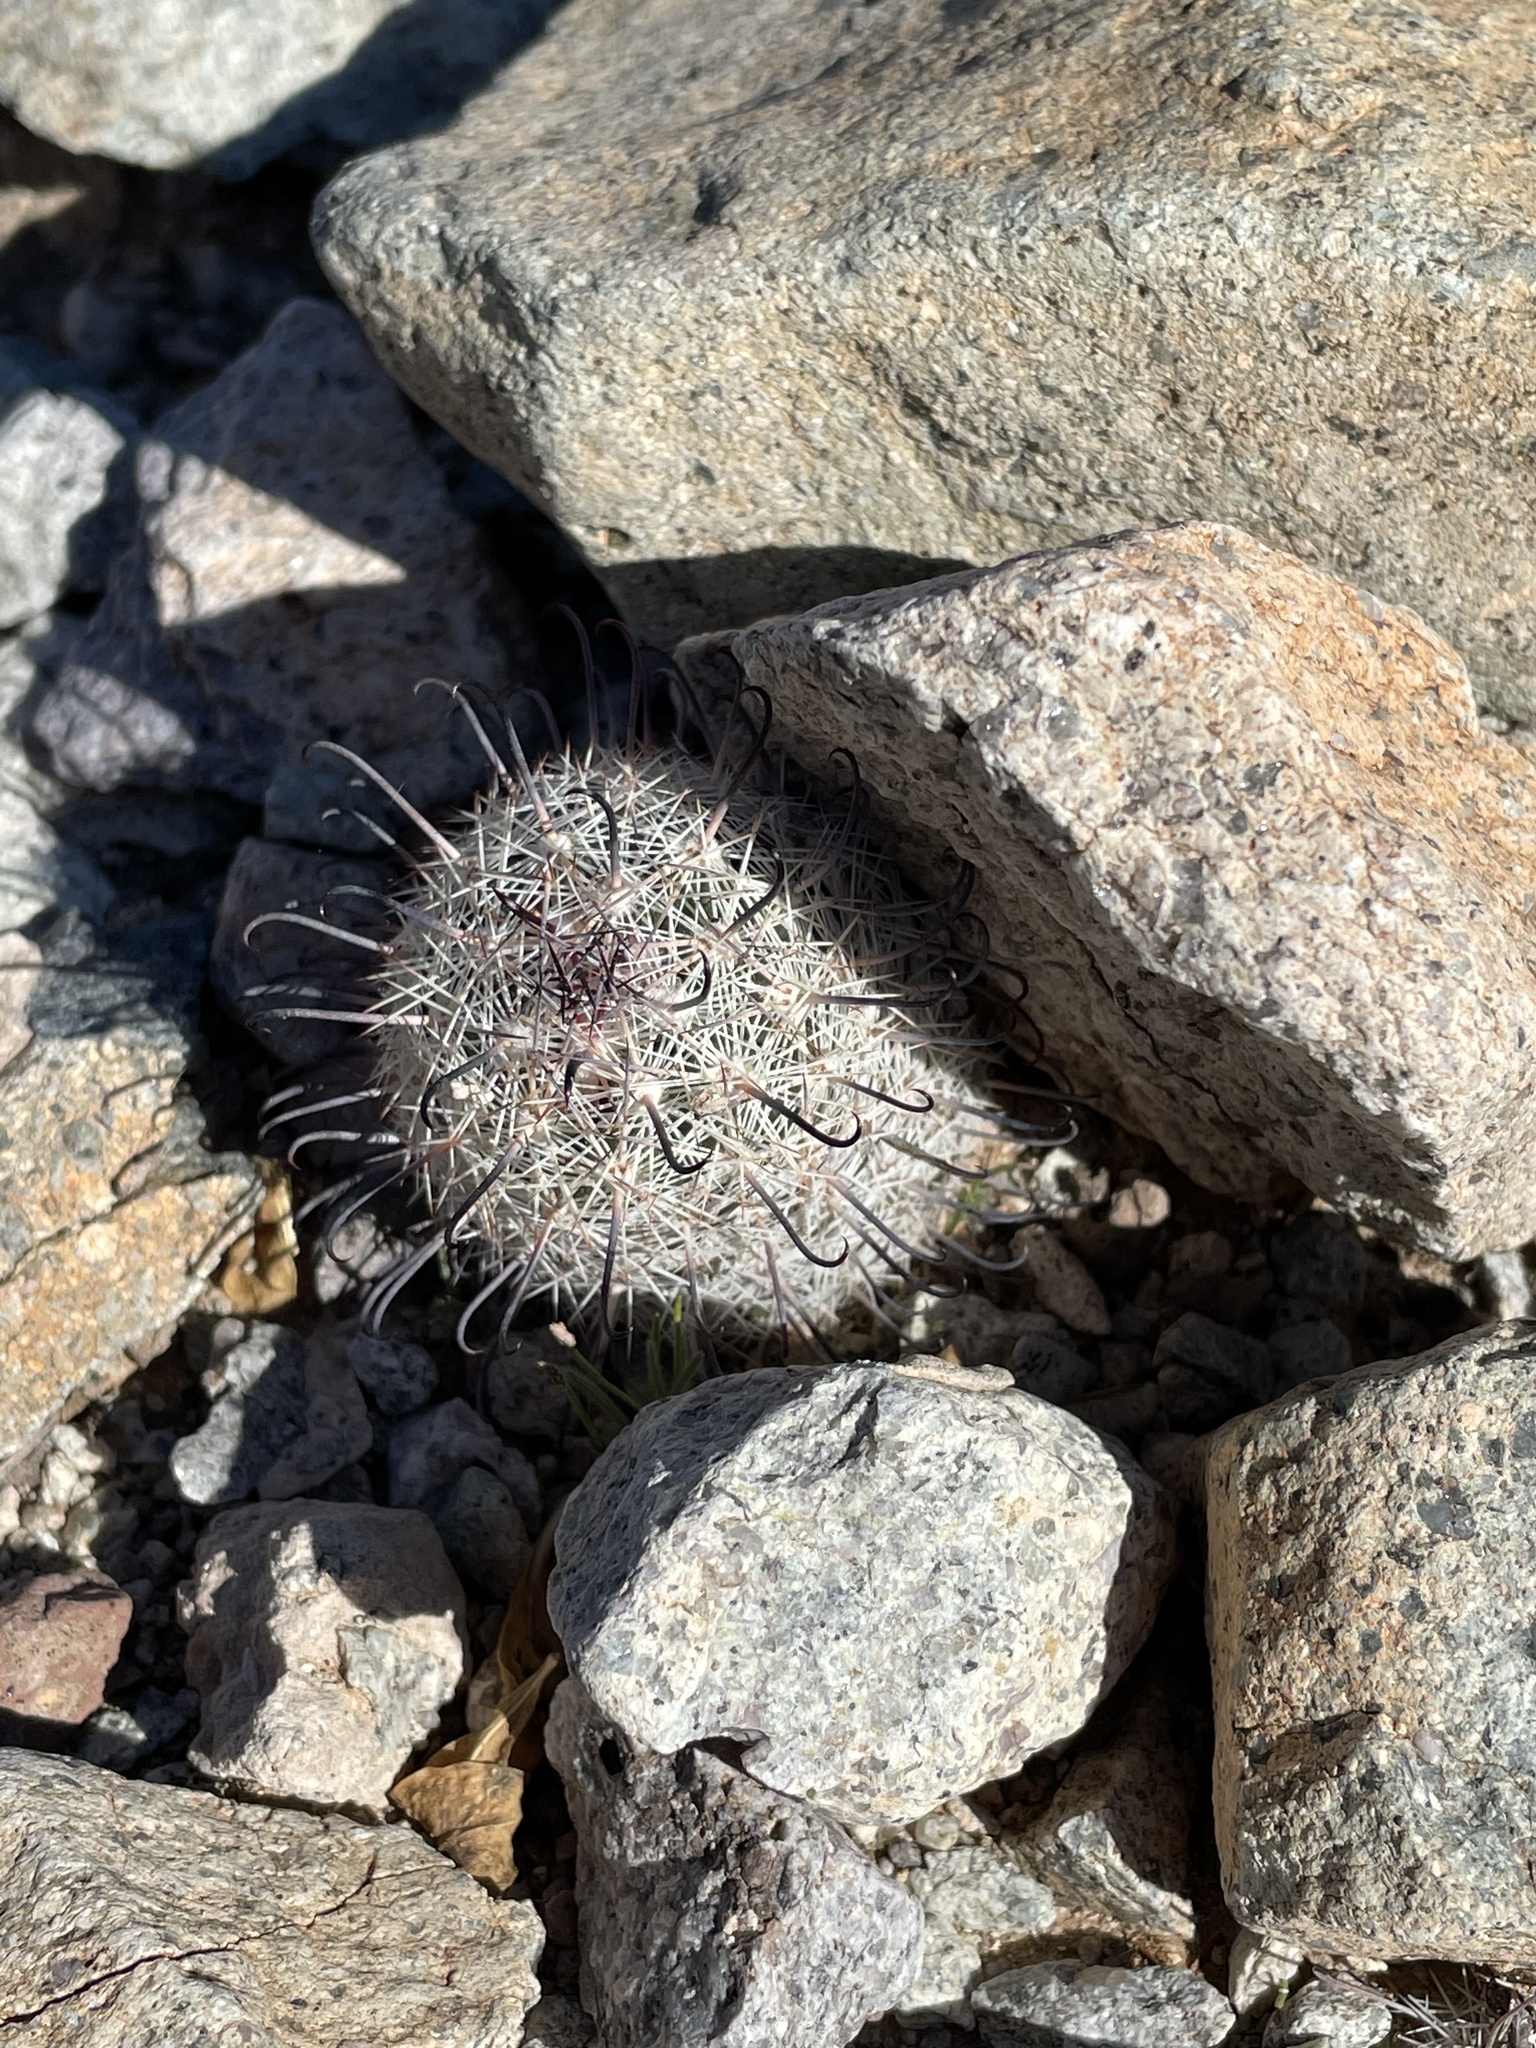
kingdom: Plantae
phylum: Tracheophyta
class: Magnoliopsida
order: Caryophyllales
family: Cactaceae
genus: Cochemiea
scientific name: Cochemiea grahamii
